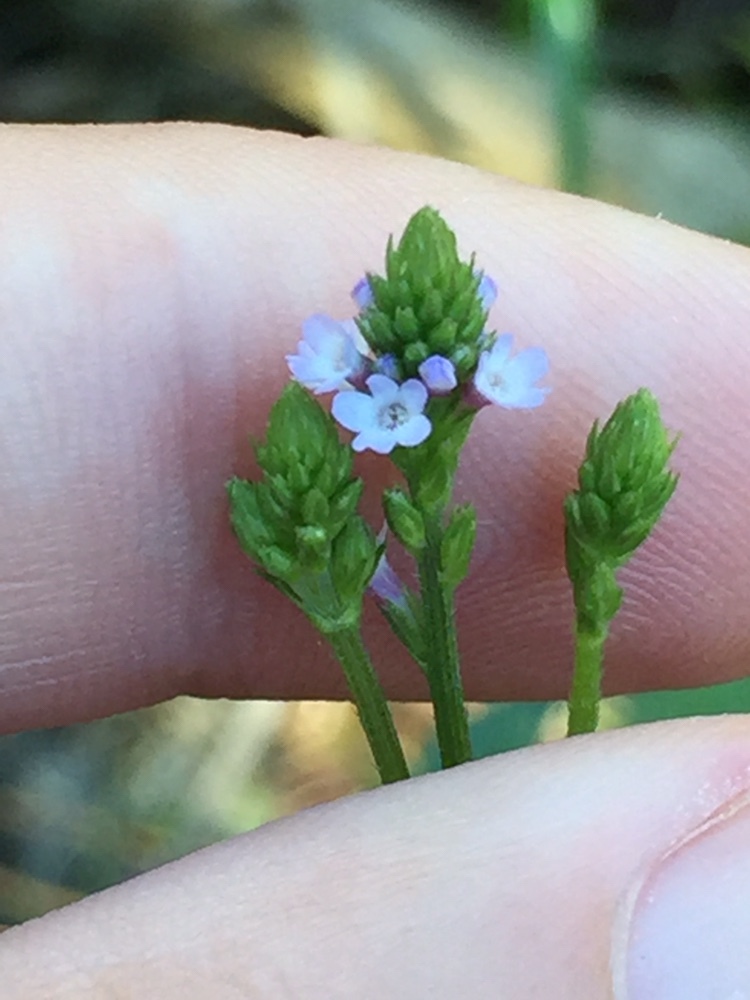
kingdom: Plantae
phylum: Tracheophyta
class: Magnoliopsida
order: Lamiales
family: Verbenaceae
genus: Verbena
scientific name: Verbena litoralis
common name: Seashore vervain
